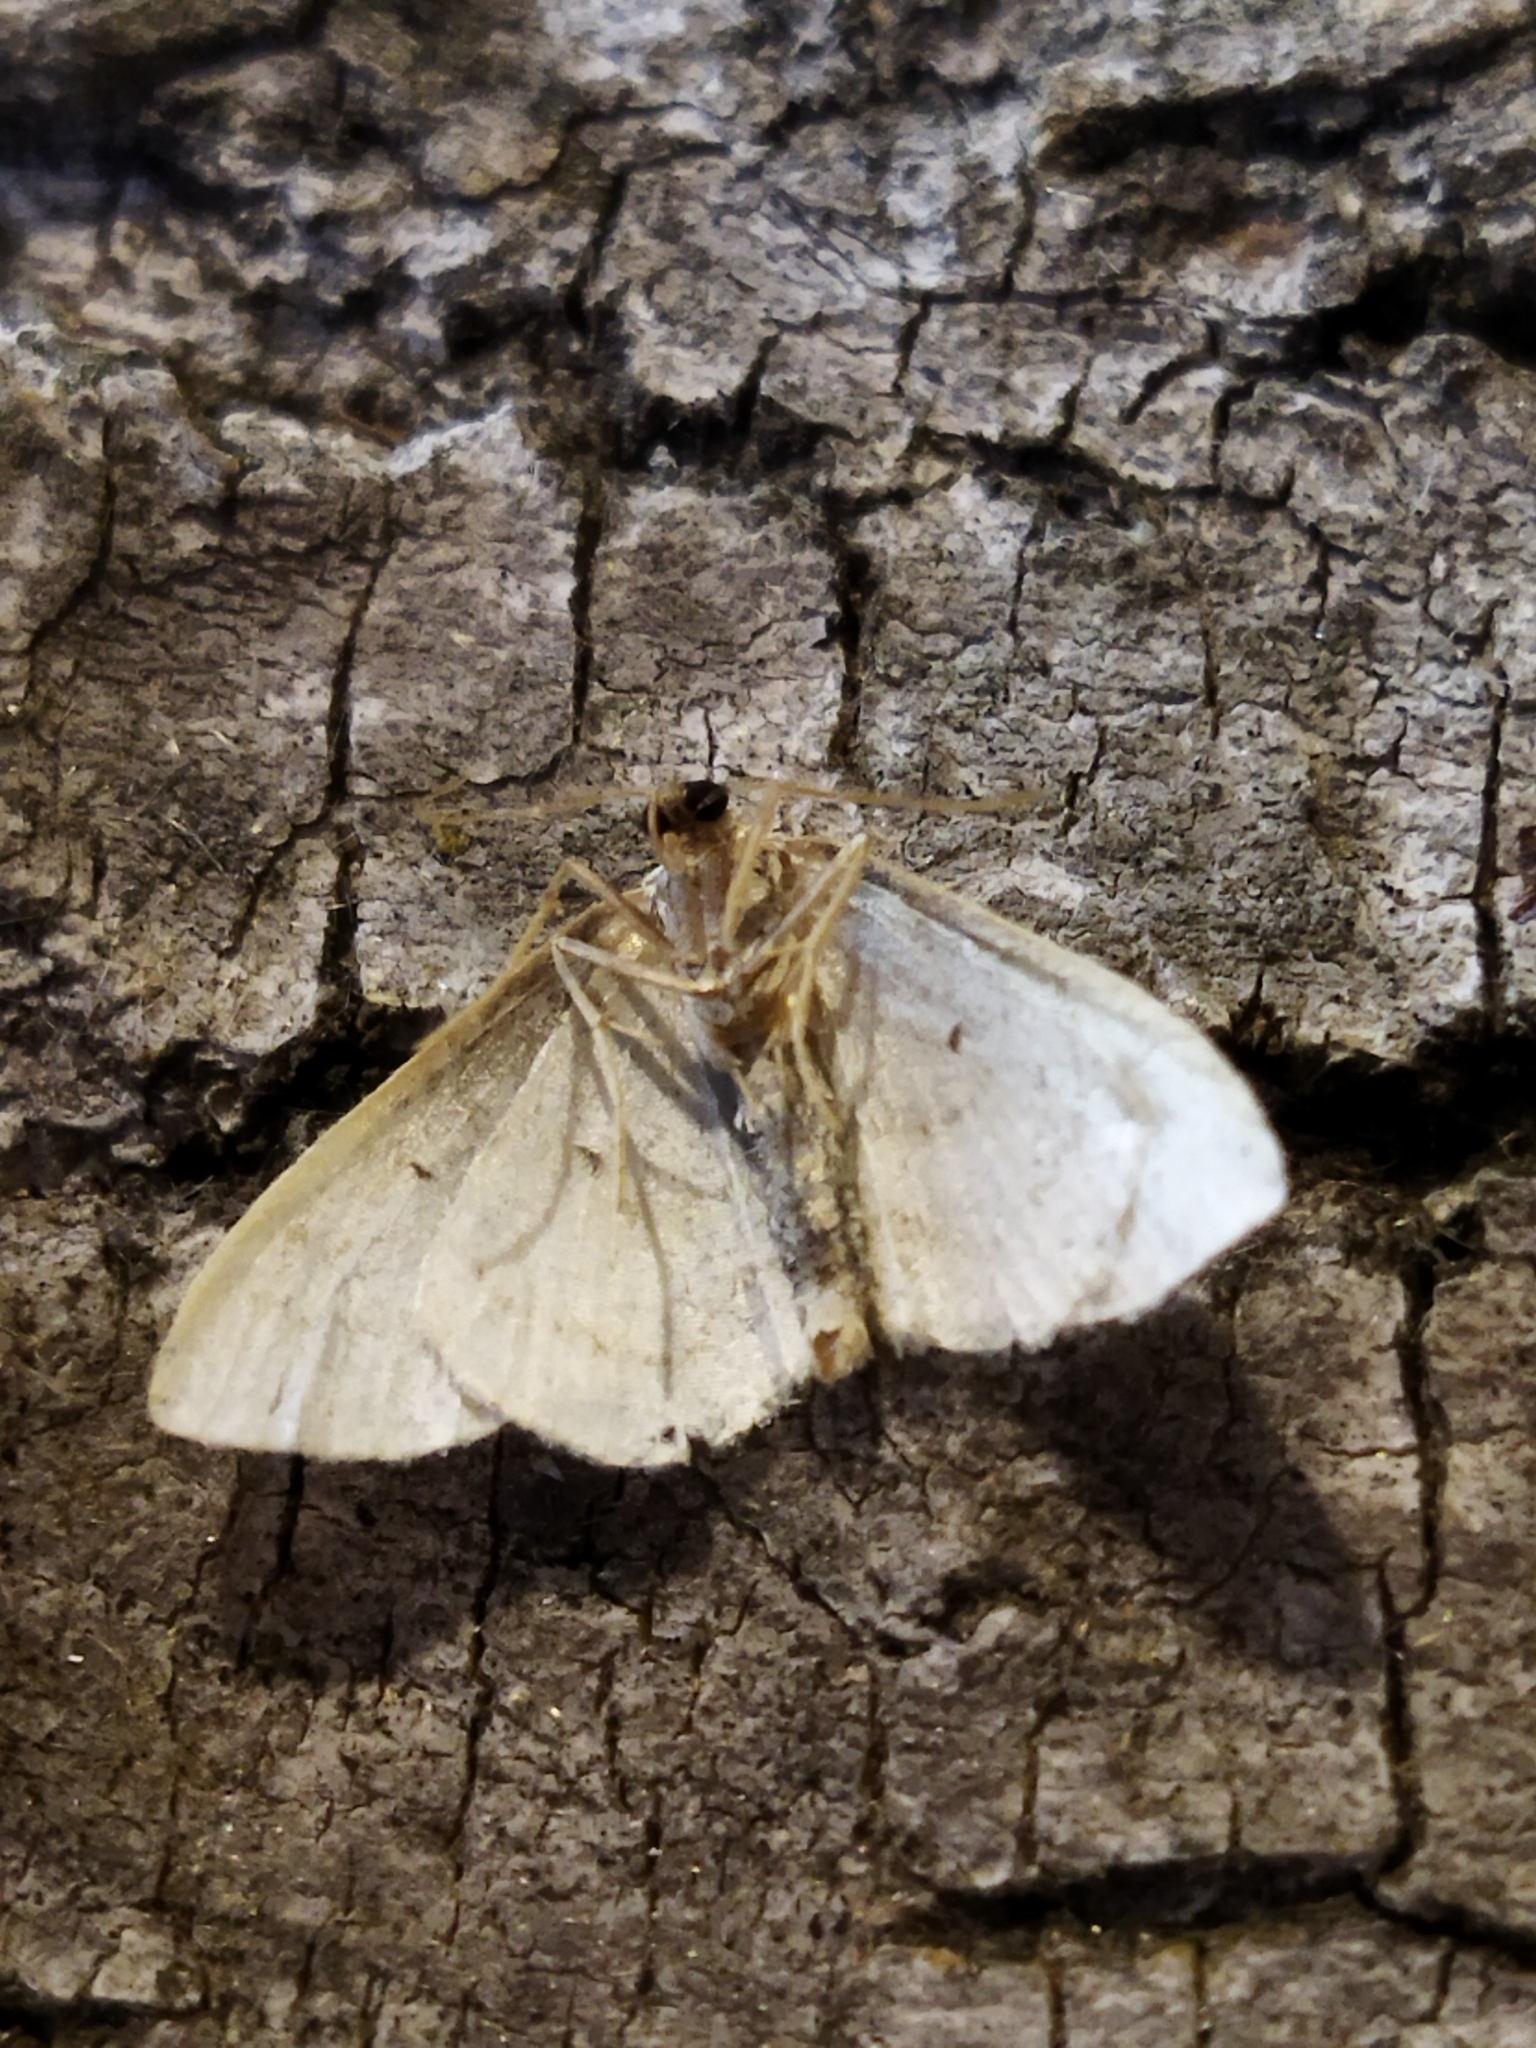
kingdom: Animalia
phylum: Arthropoda
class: Insecta
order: Lepidoptera
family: Geometridae
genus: Idaea
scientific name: Idaea subsericeata
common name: Satin wave
